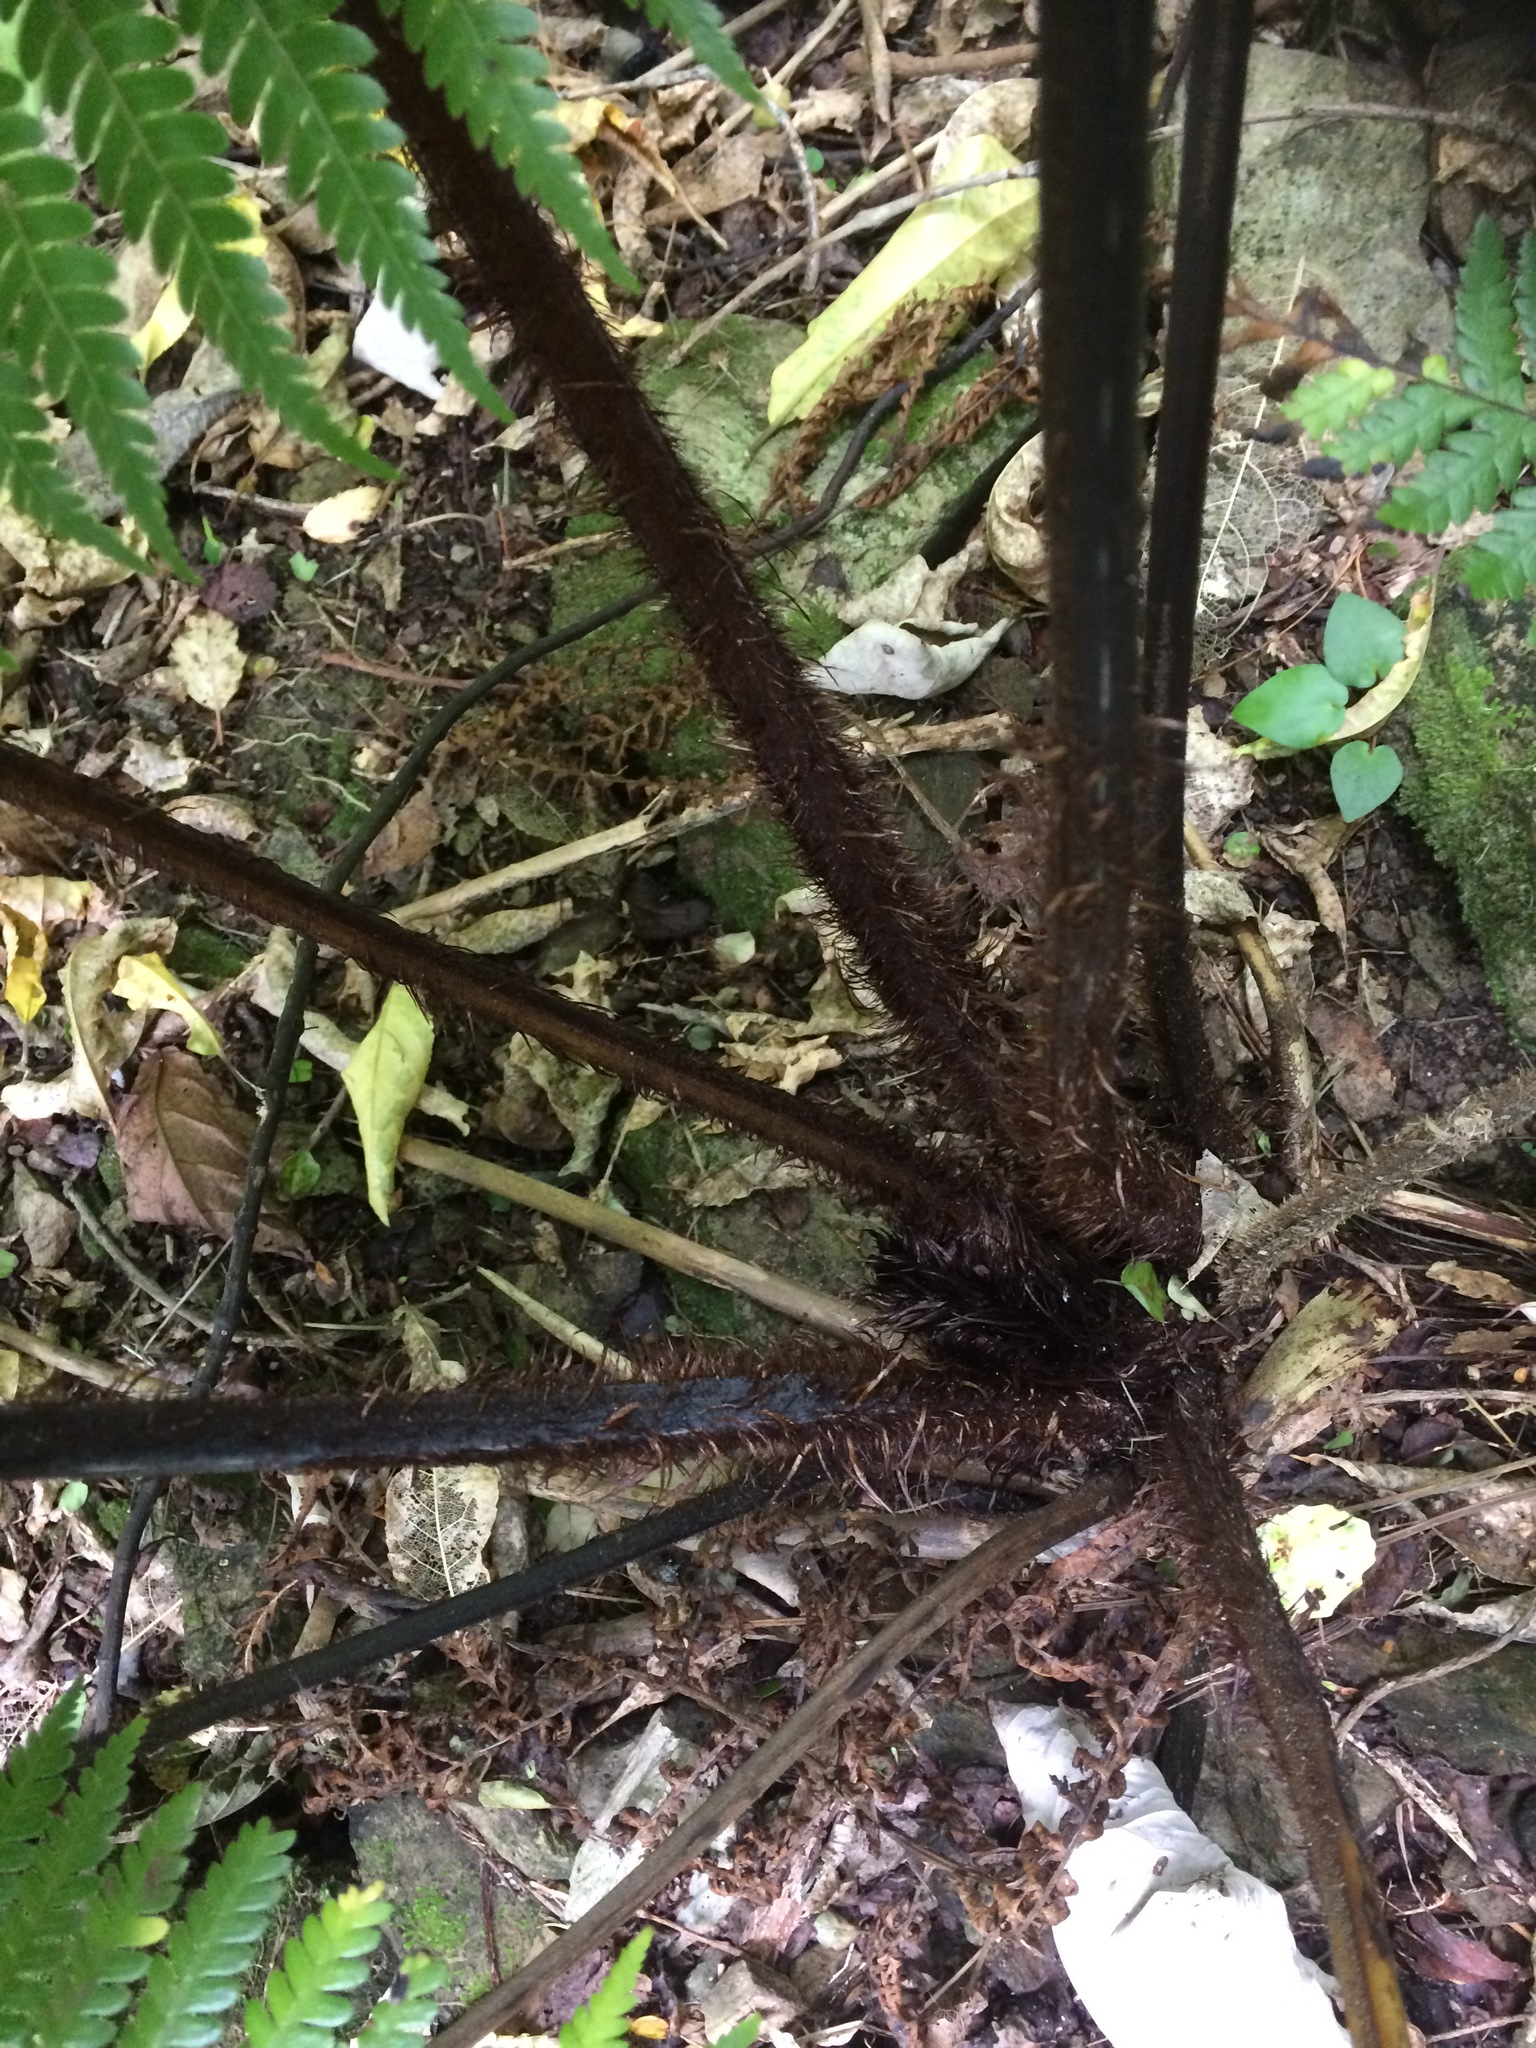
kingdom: Plantae
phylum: Tracheophyta
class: Polypodiopsida
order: Cyatheales
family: Cyatheaceae
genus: Sphaeropteris
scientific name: Sphaeropteris medullaris
